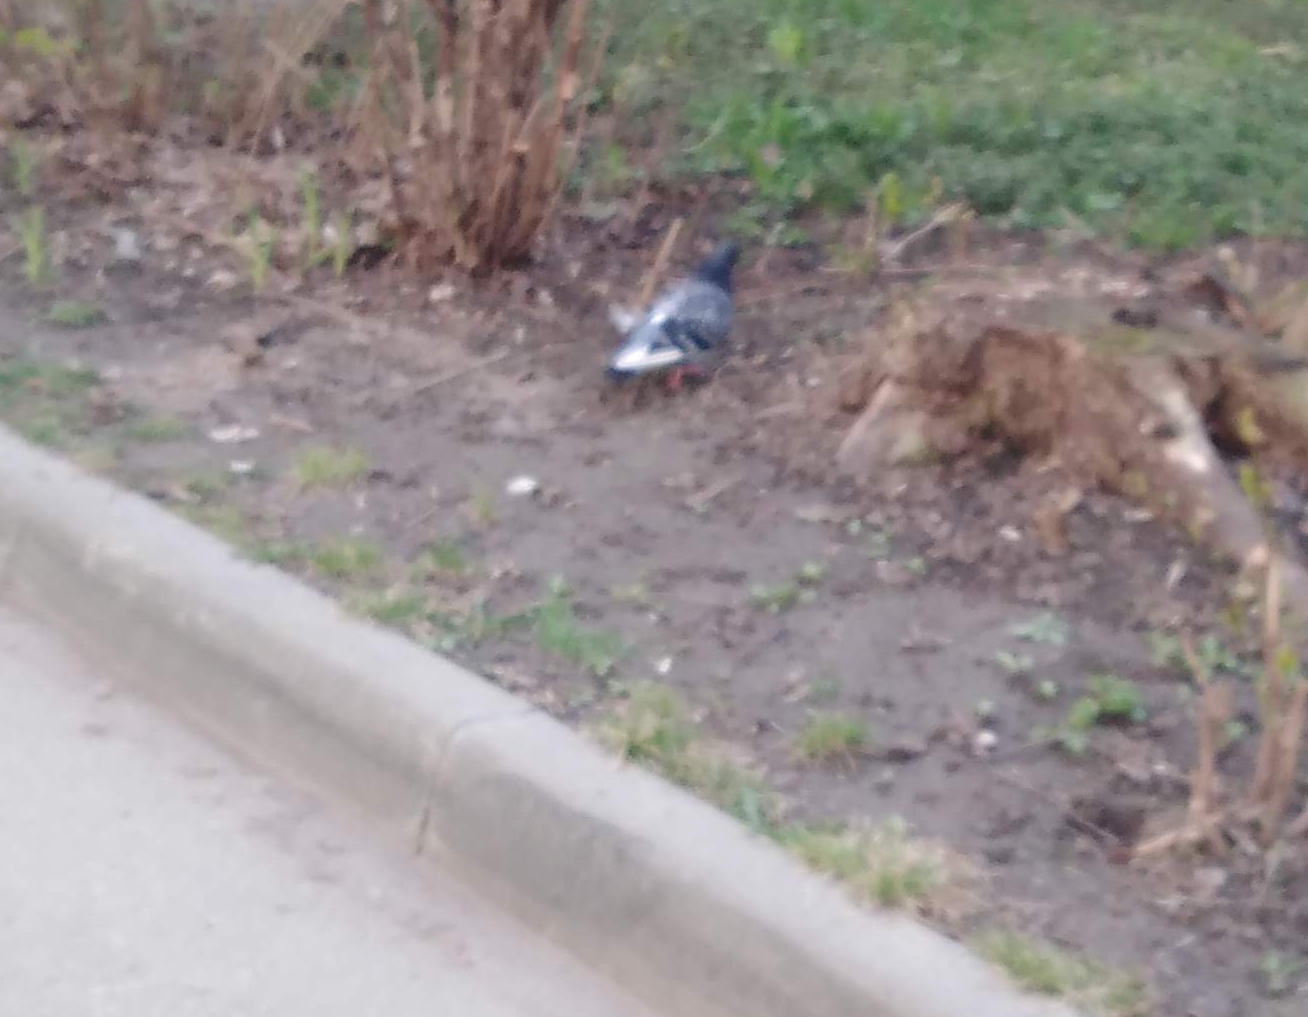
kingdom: Animalia
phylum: Chordata
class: Aves
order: Columbiformes
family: Columbidae
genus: Columba
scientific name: Columba livia
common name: Rock pigeon
